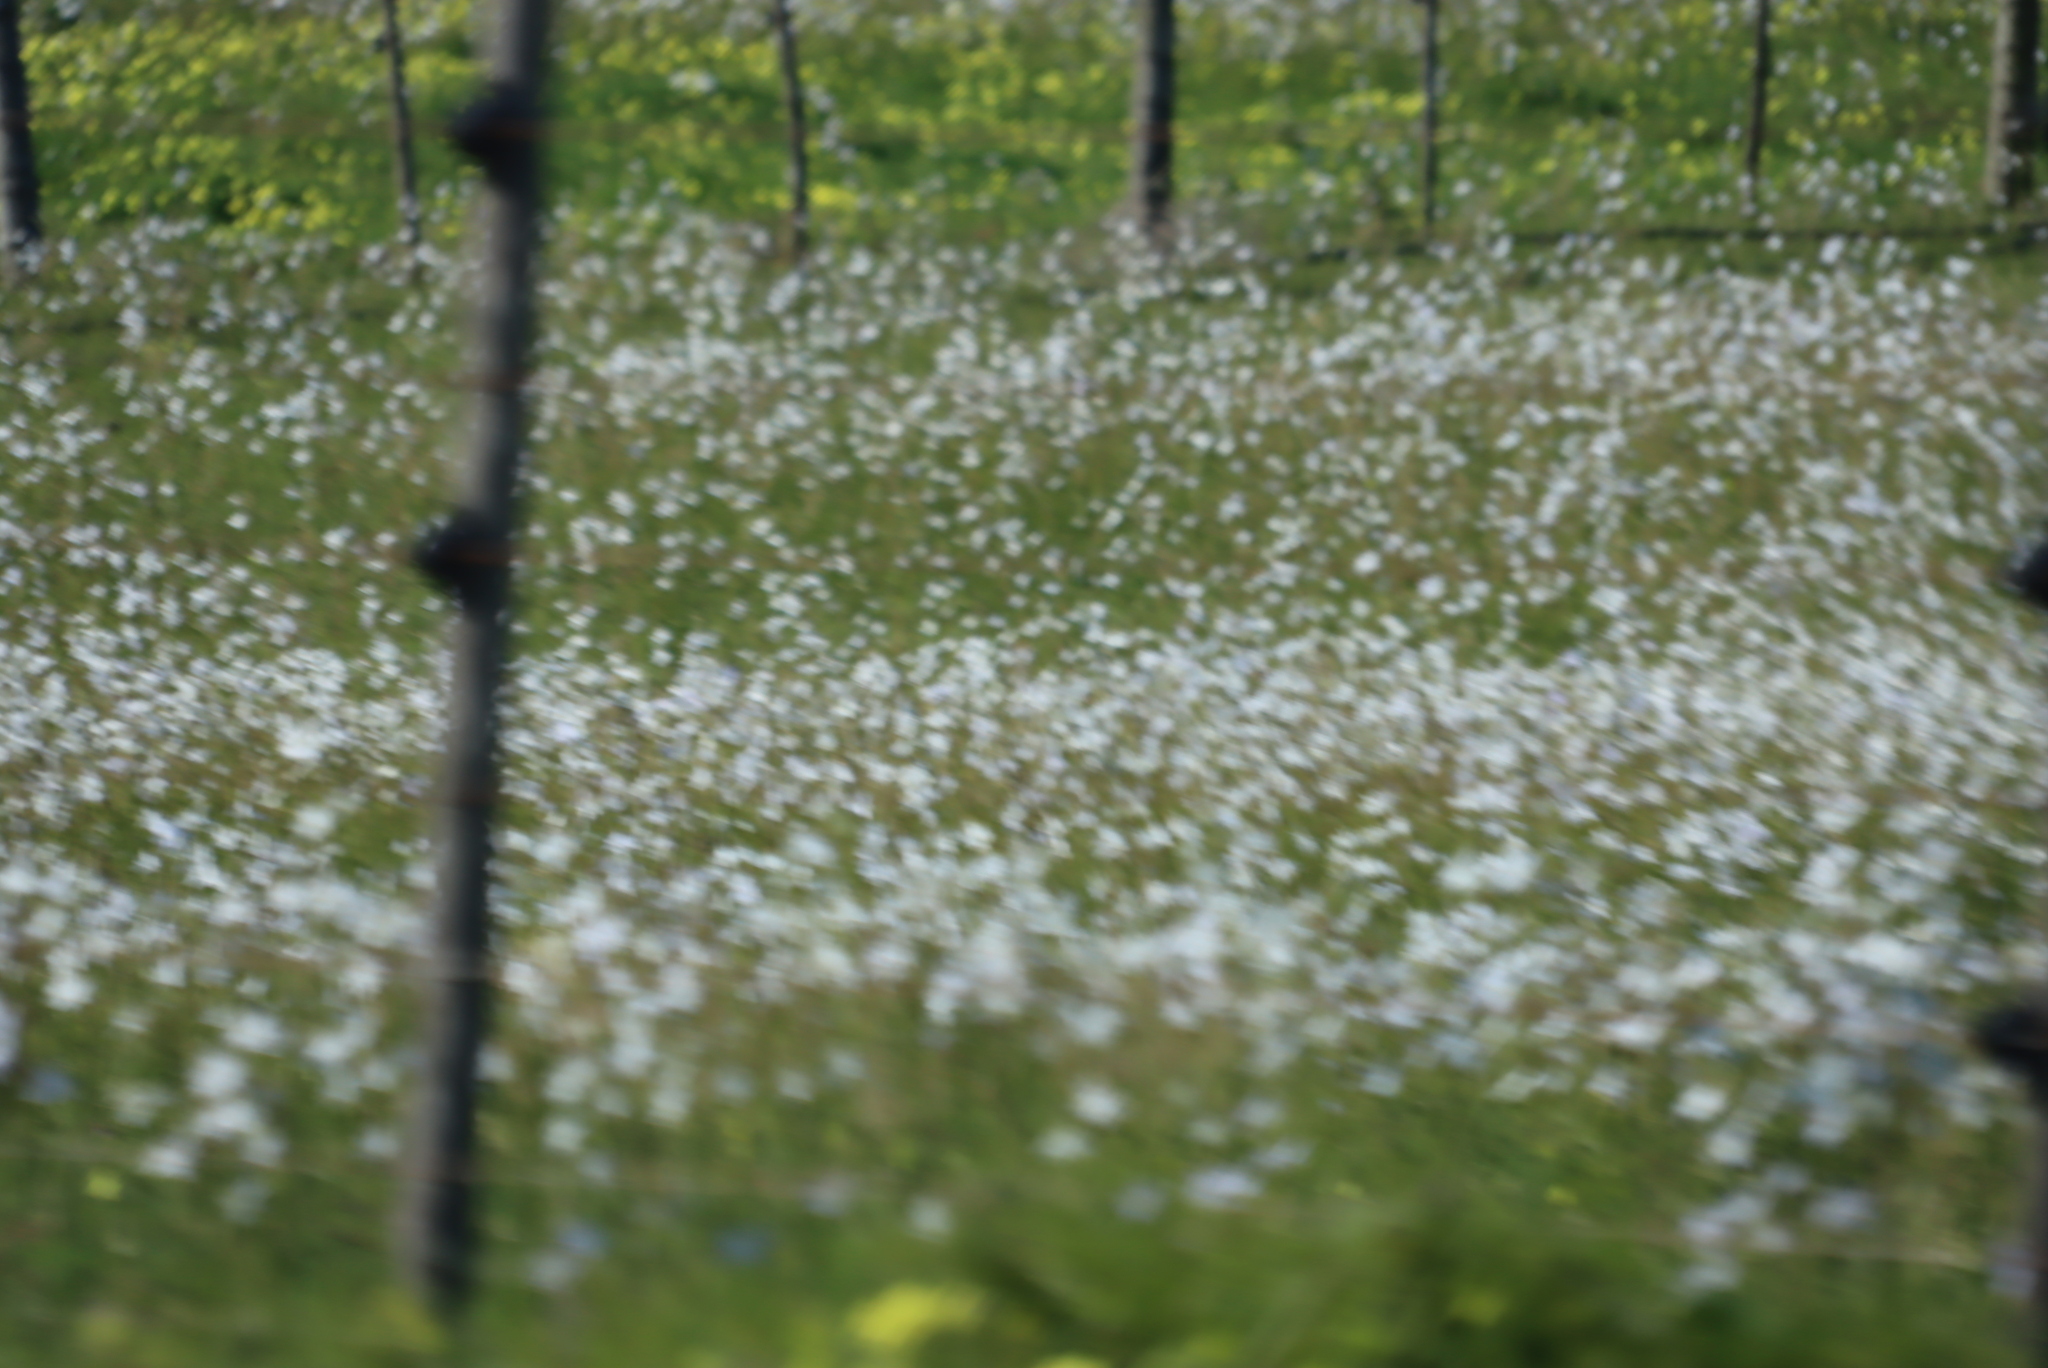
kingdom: Plantae
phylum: Tracheophyta
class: Liliopsida
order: Asparagales
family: Iridaceae
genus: Moraea
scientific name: Moraea polyanthos
